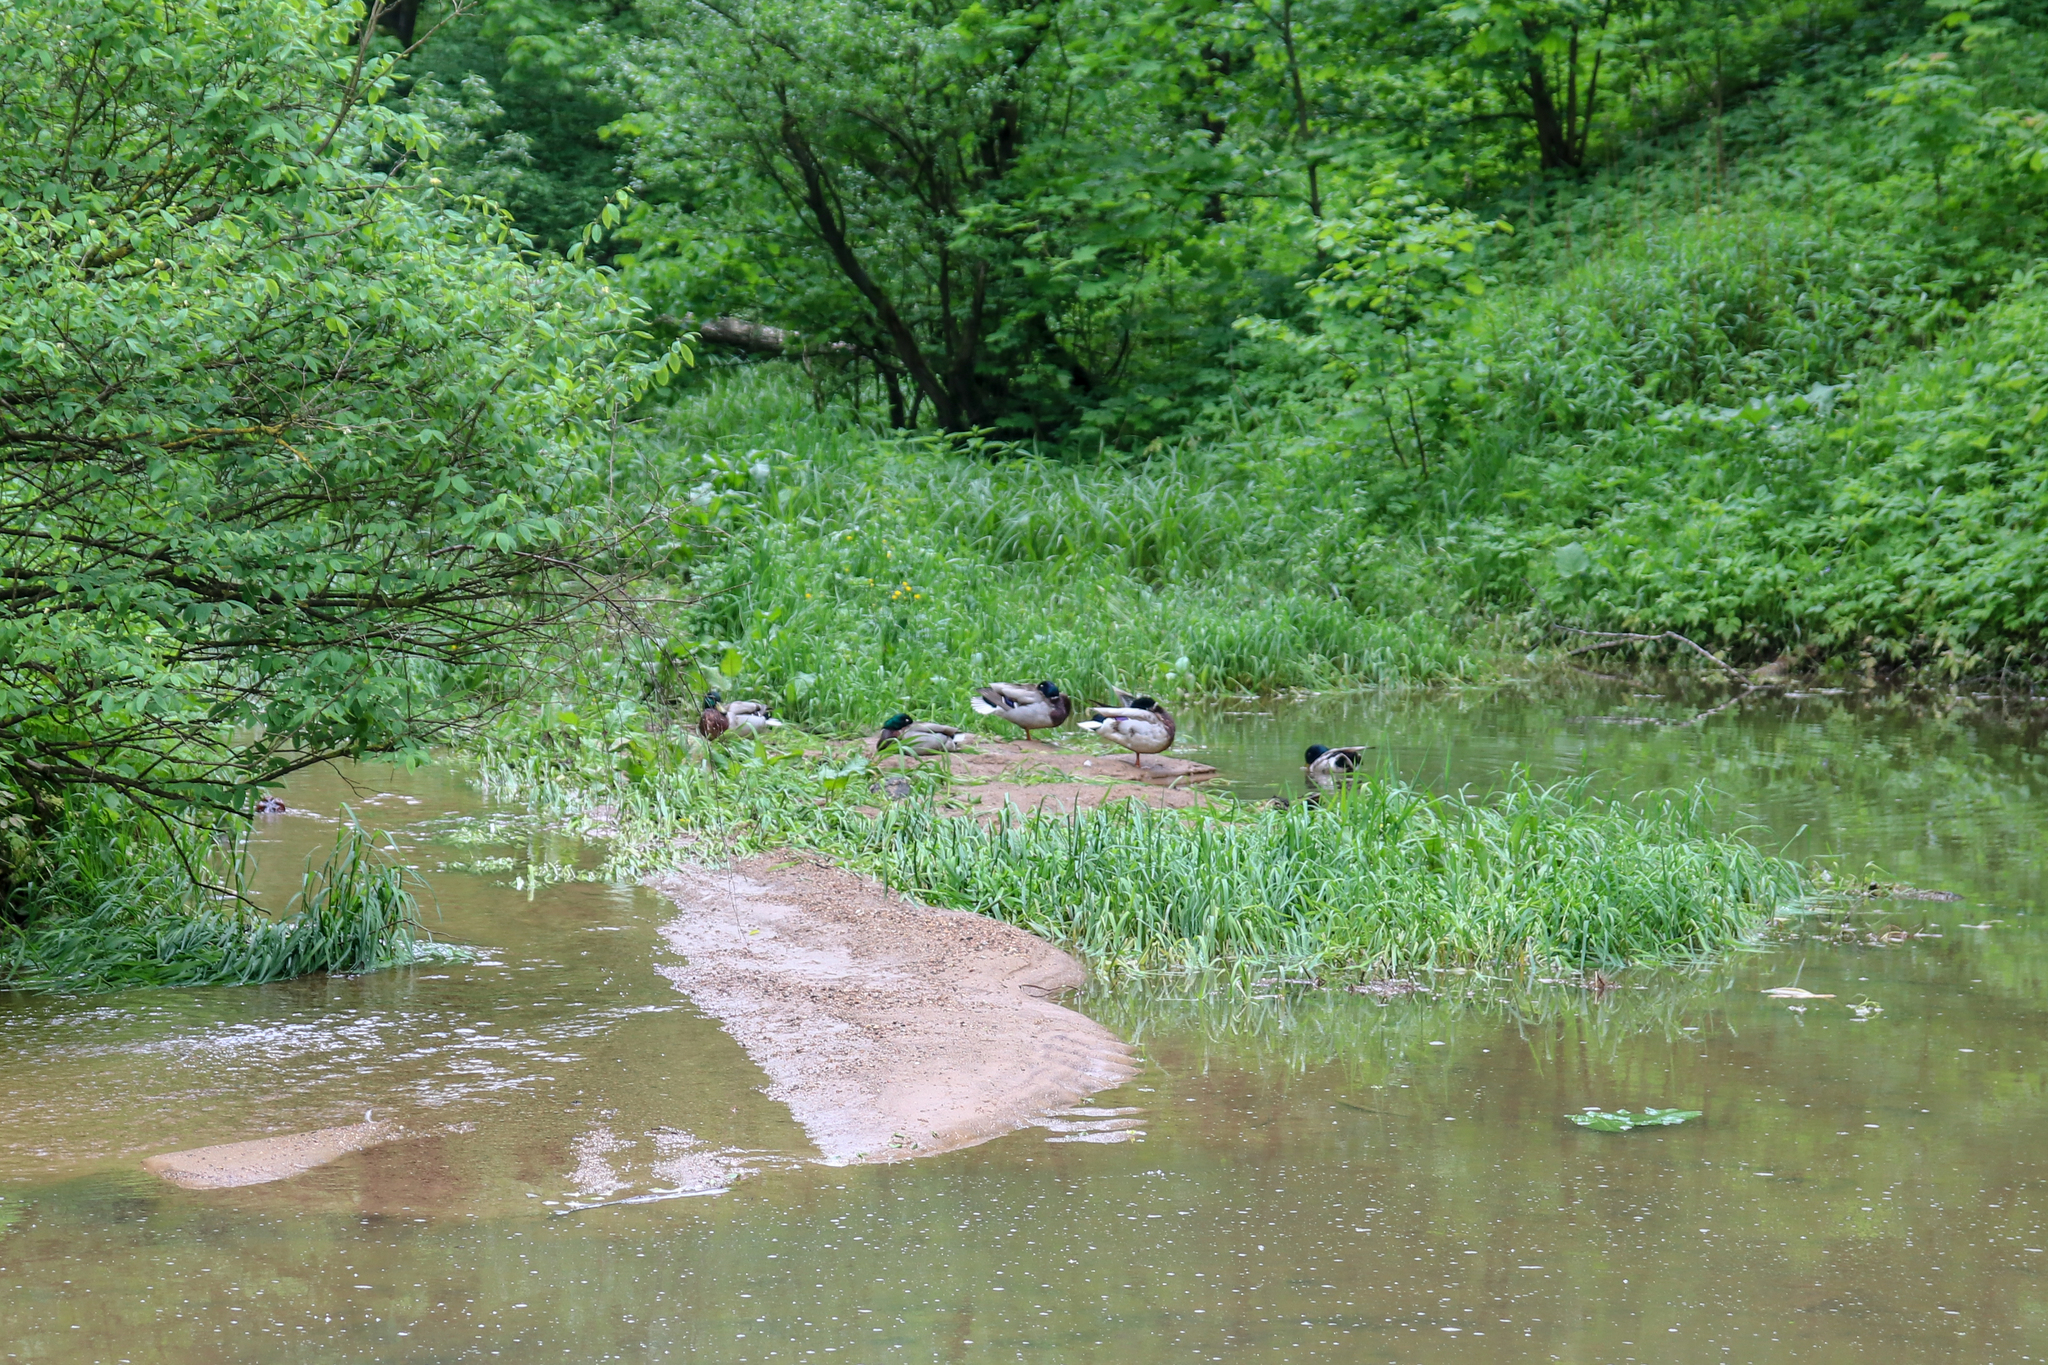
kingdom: Animalia
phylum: Chordata
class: Aves
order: Anseriformes
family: Anatidae
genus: Anas
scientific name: Anas platyrhynchos
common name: Mallard
